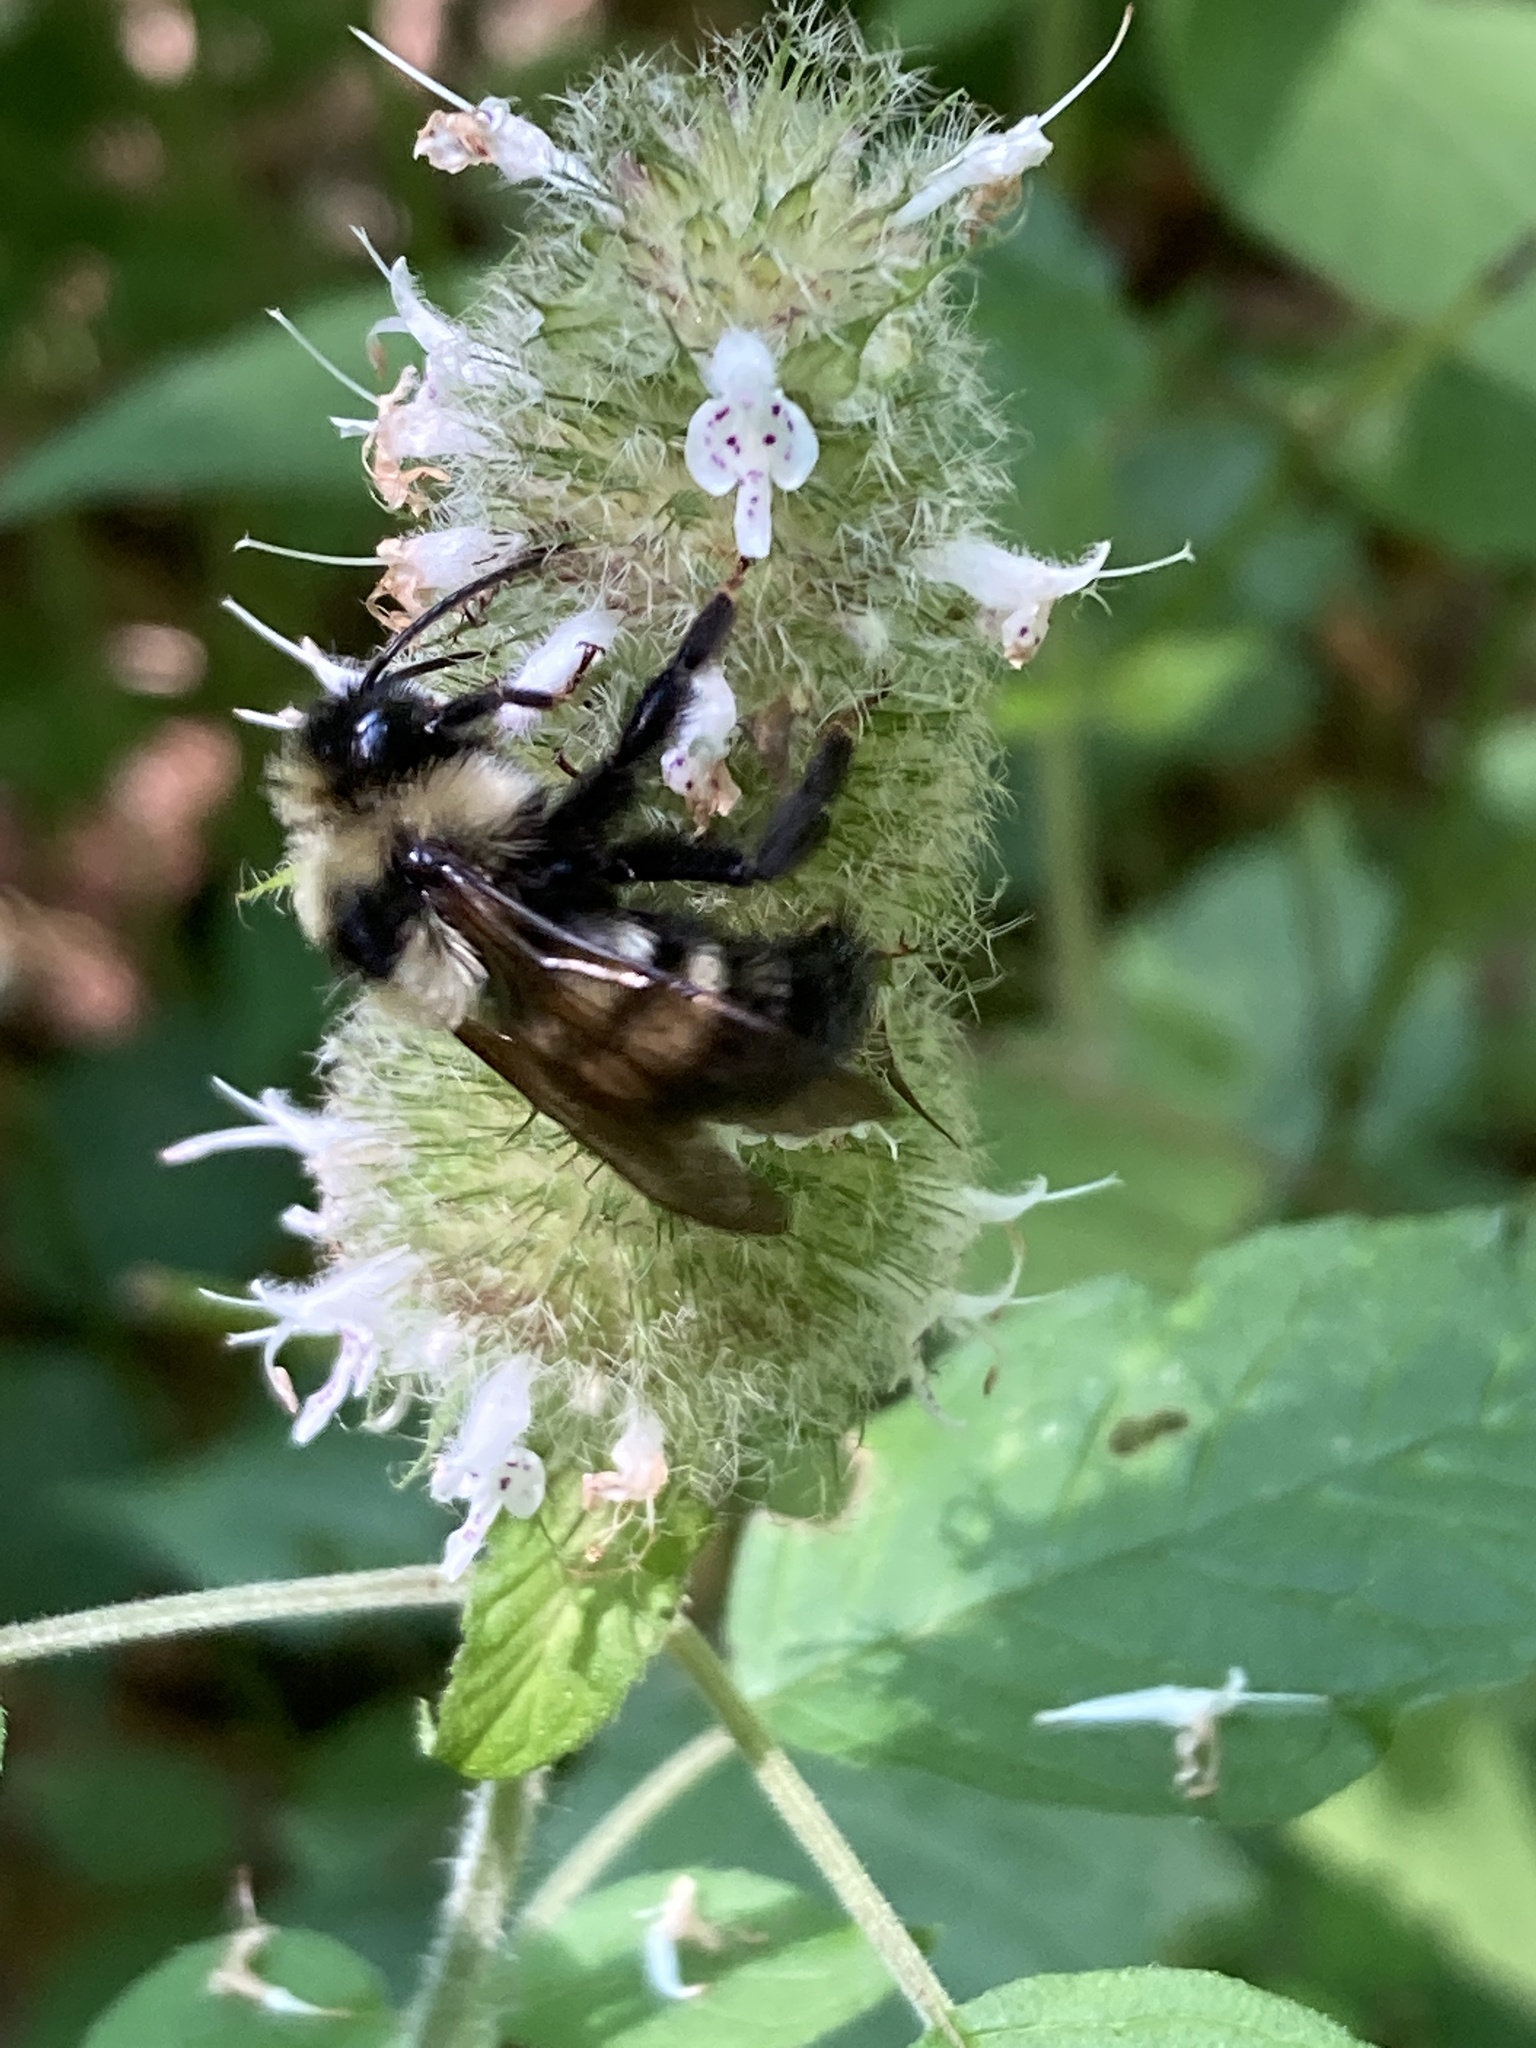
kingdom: Animalia
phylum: Arthropoda
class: Insecta
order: Hymenoptera
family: Apidae
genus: Bombus
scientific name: Bombus citrinus
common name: Lemon cuckoo bumble bee
